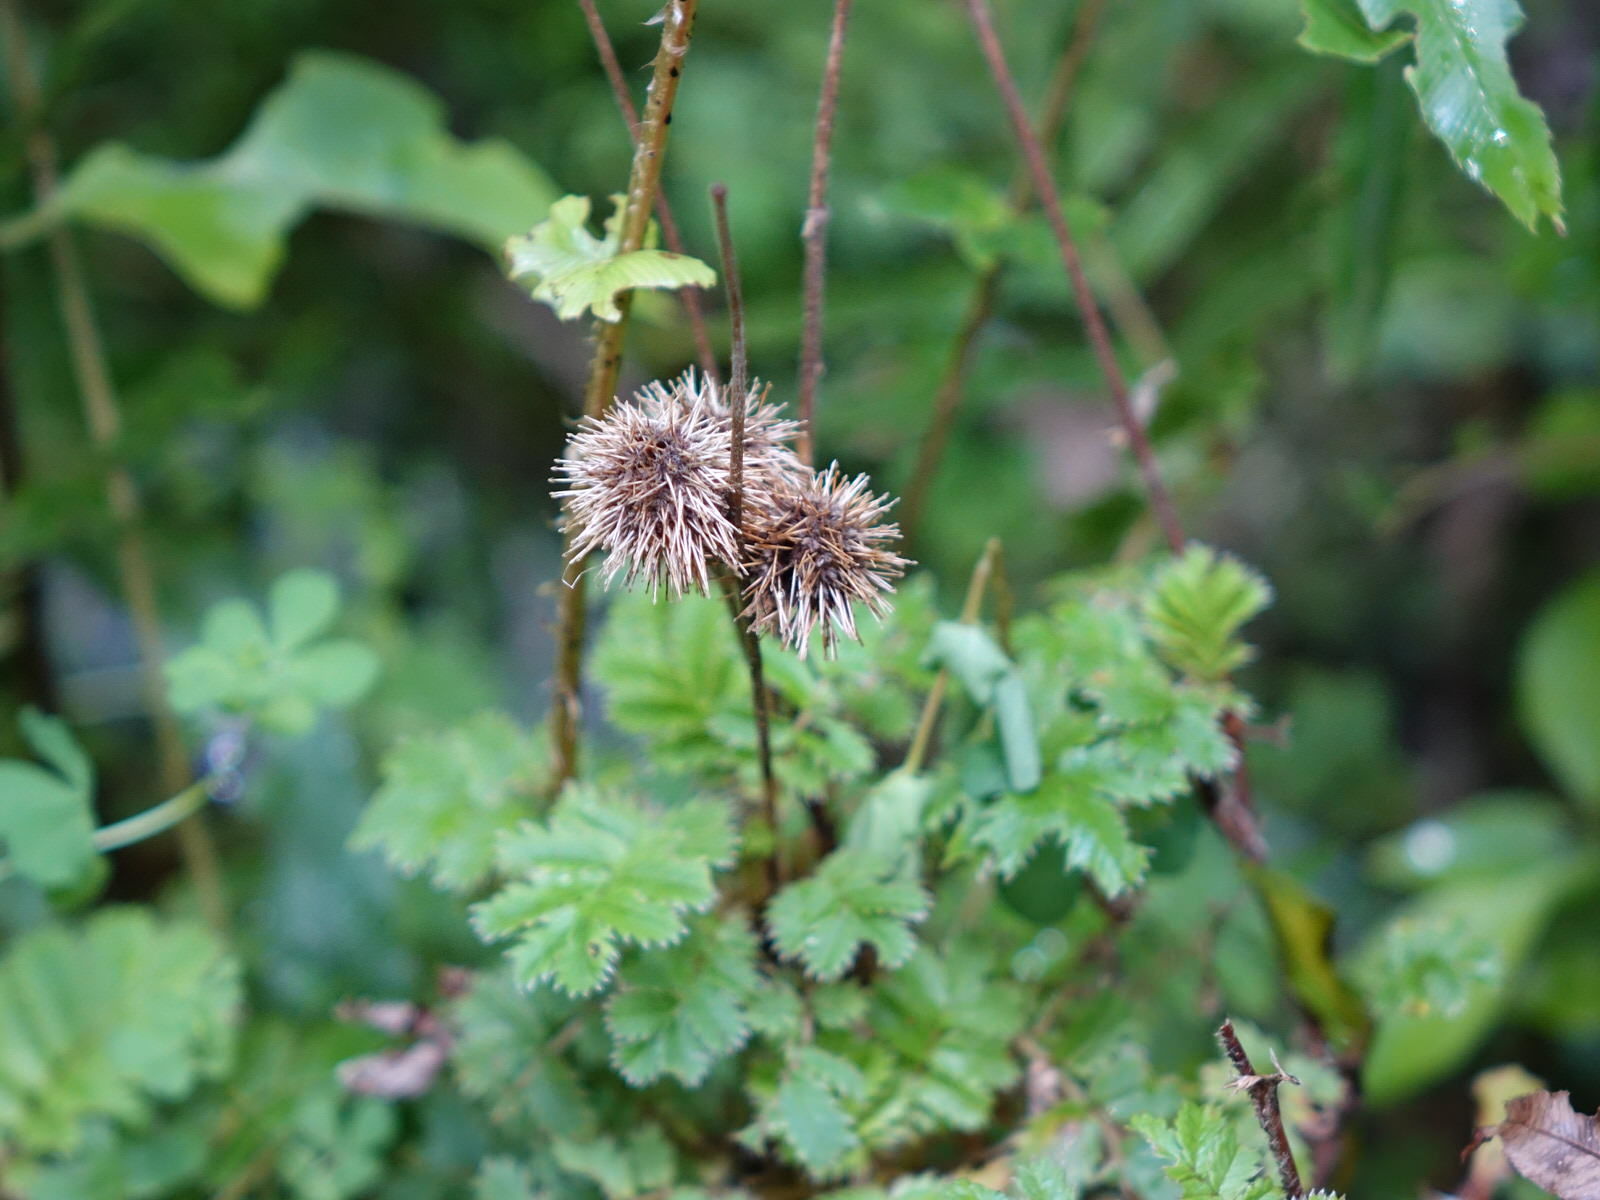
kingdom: Plantae
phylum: Tracheophyta
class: Magnoliopsida
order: Rosales
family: Rosaceae
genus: Acaena
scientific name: Acaena anserinifolia
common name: Bronze pirri-pirri-bur
